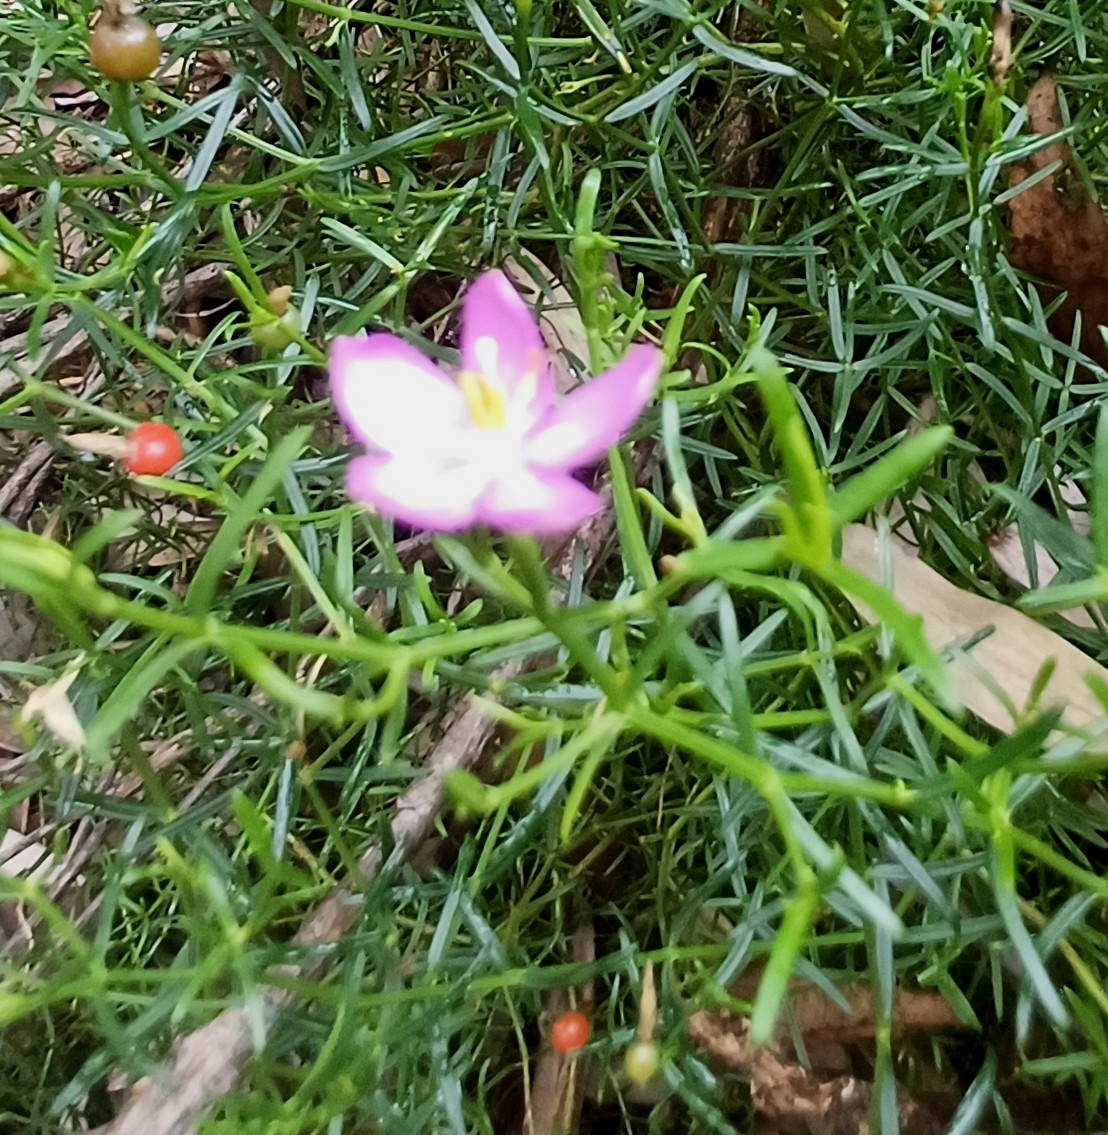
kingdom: Plantae
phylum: Tracheophyta
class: Magnoliopsida
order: Gentianales
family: Gentianaceae
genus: Chironia
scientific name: Chironia baccifera
